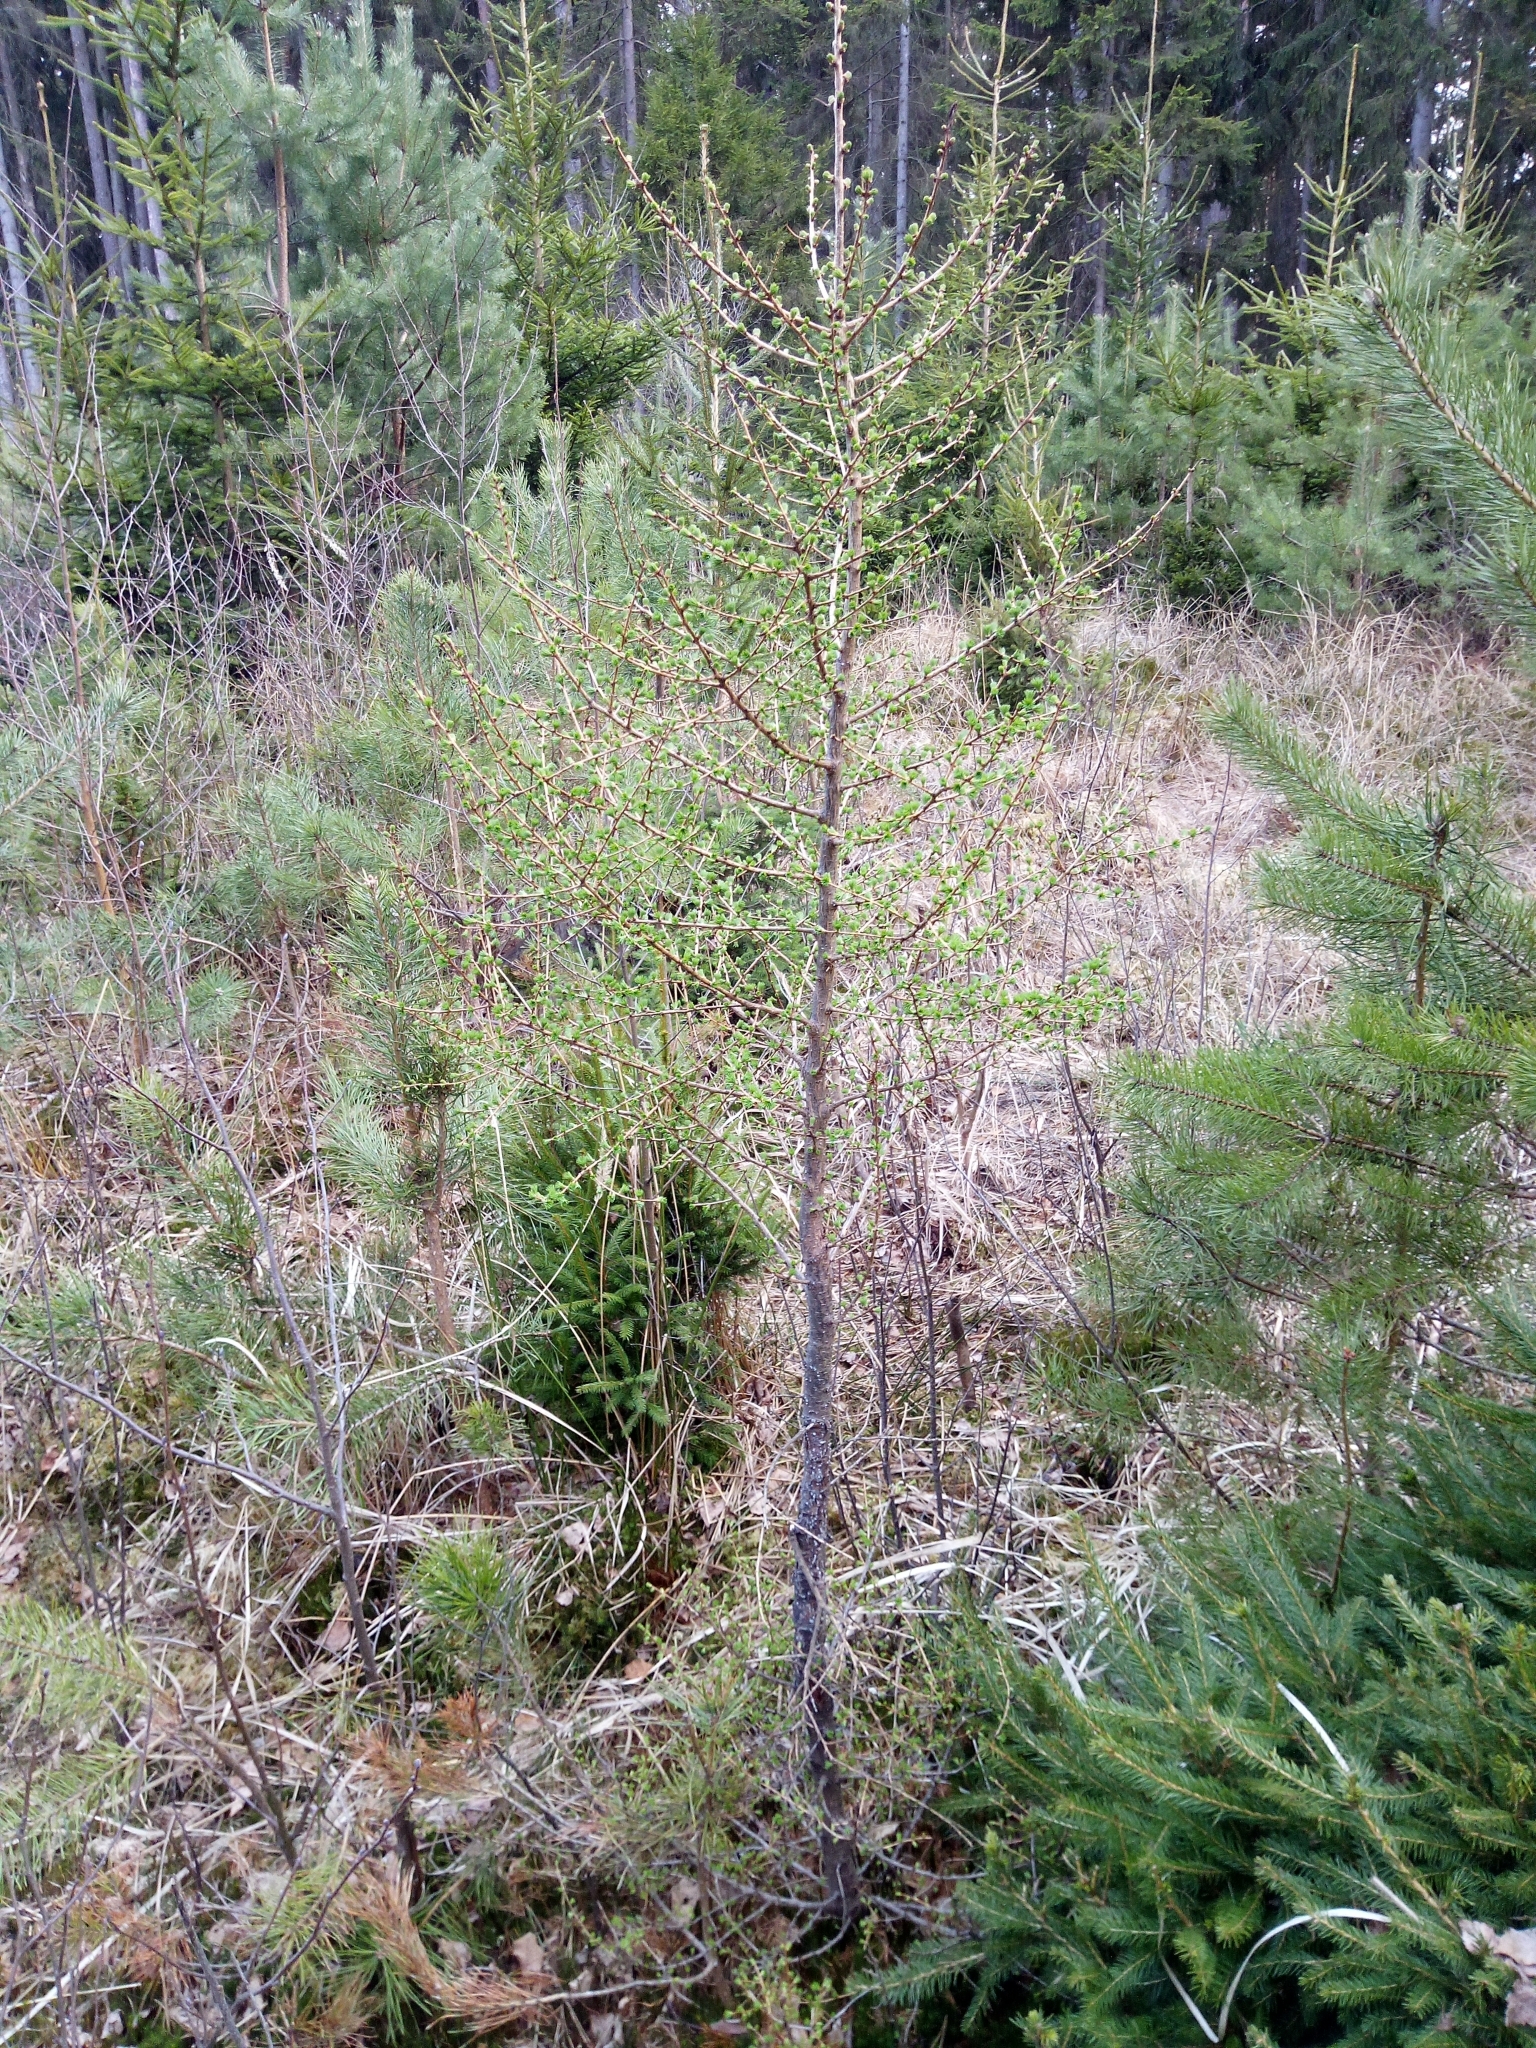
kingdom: Plantae
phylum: Tracheophyta
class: Pinopsida
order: Pinales
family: Pinaceae
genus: Larix
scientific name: Larix decidua
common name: European larch
